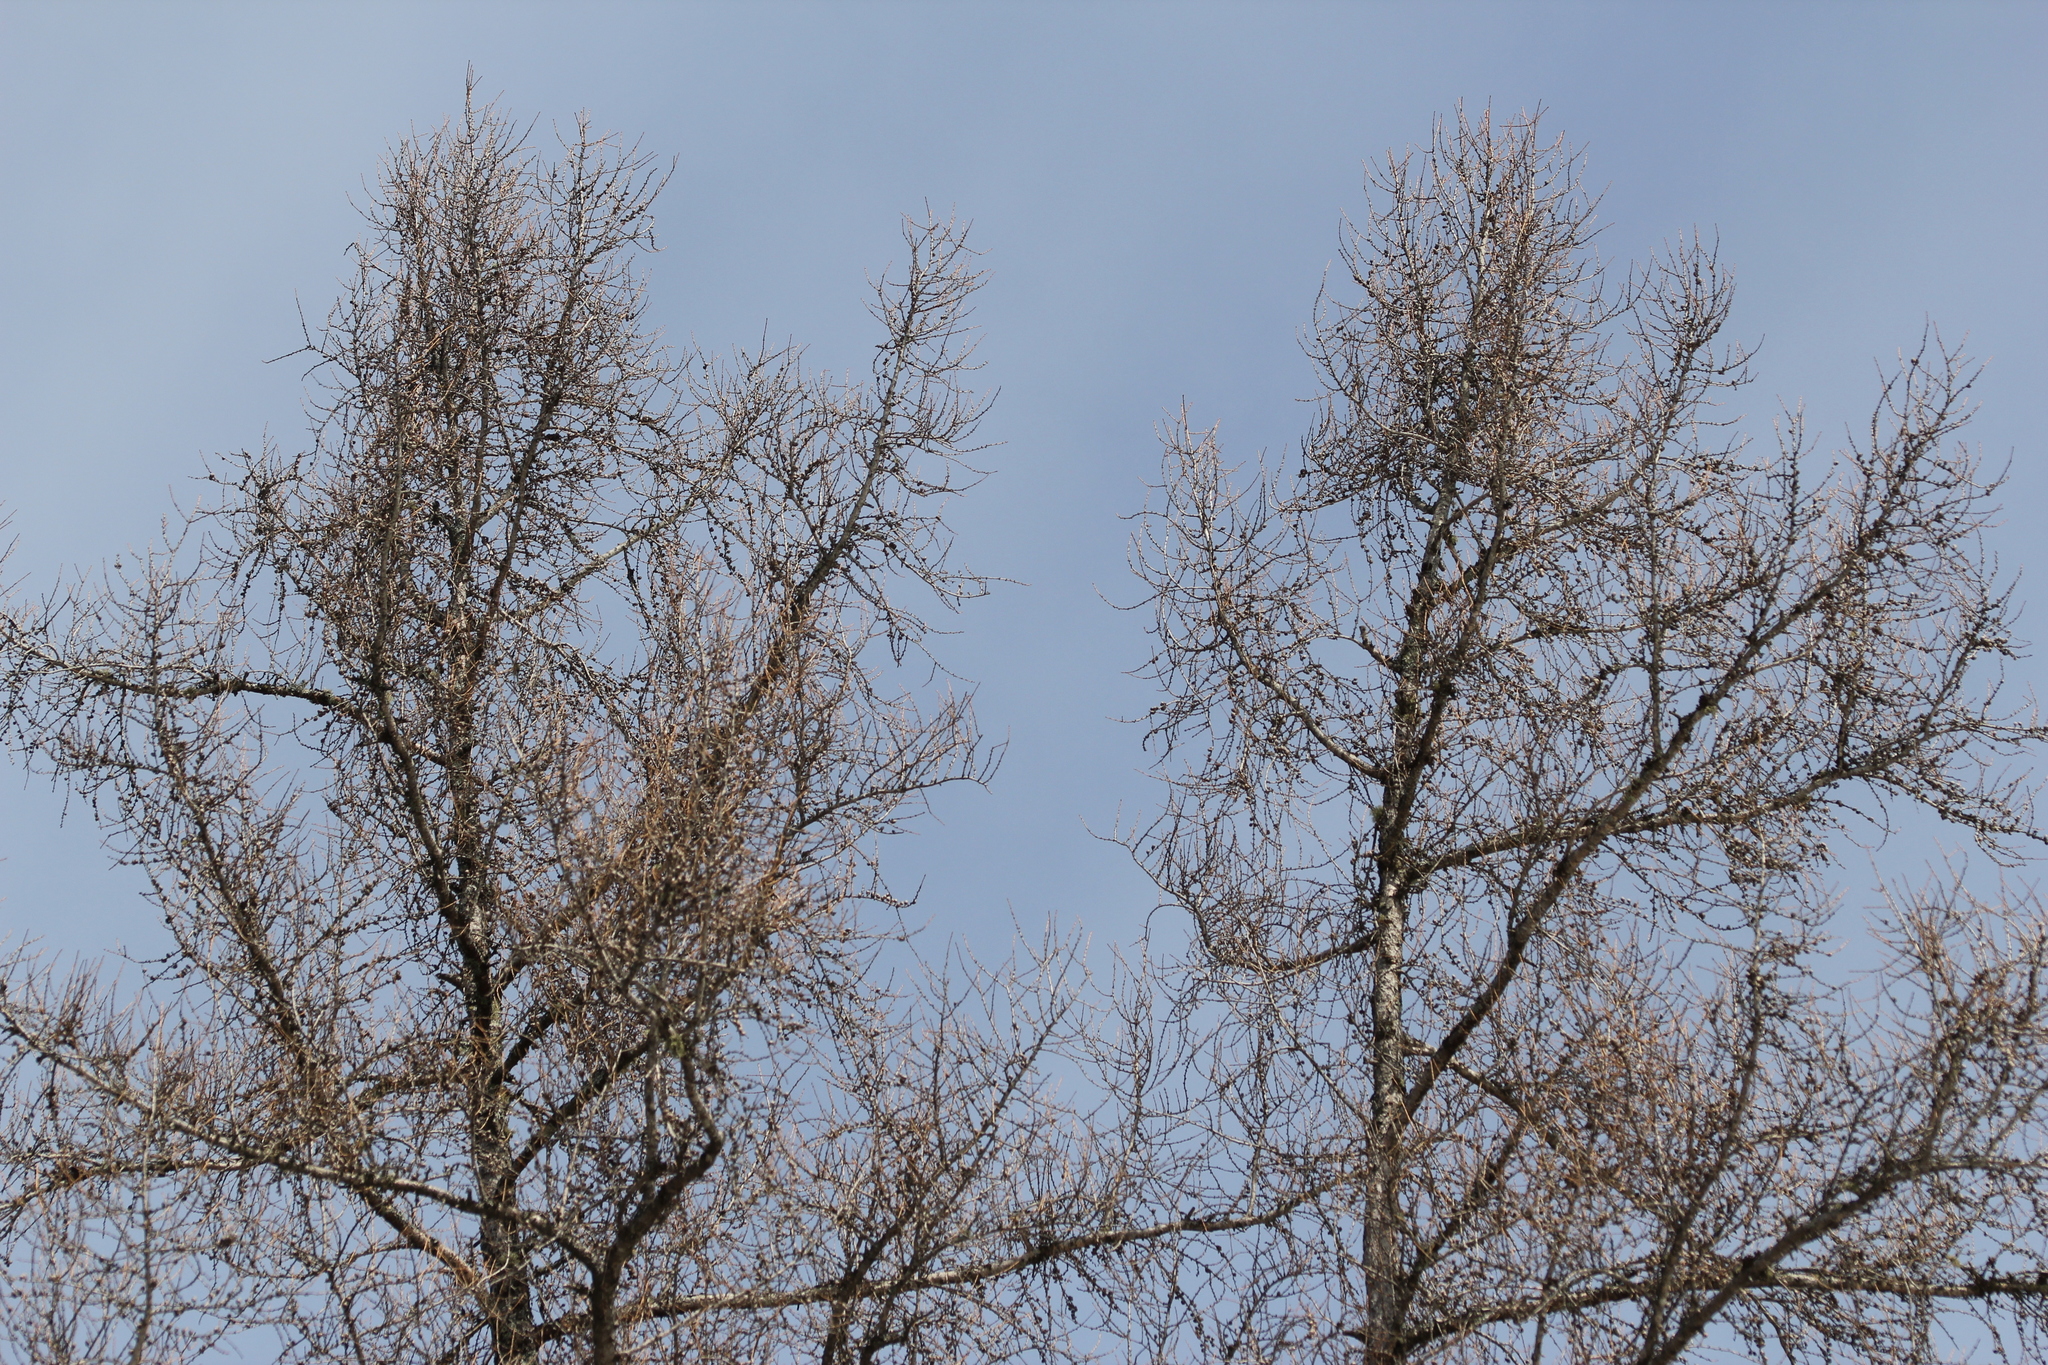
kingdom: Plantae
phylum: Tracheophyta
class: Pinopsida
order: Pinales
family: Pinaceae
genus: Larix
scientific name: Larix laricina
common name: American larch
